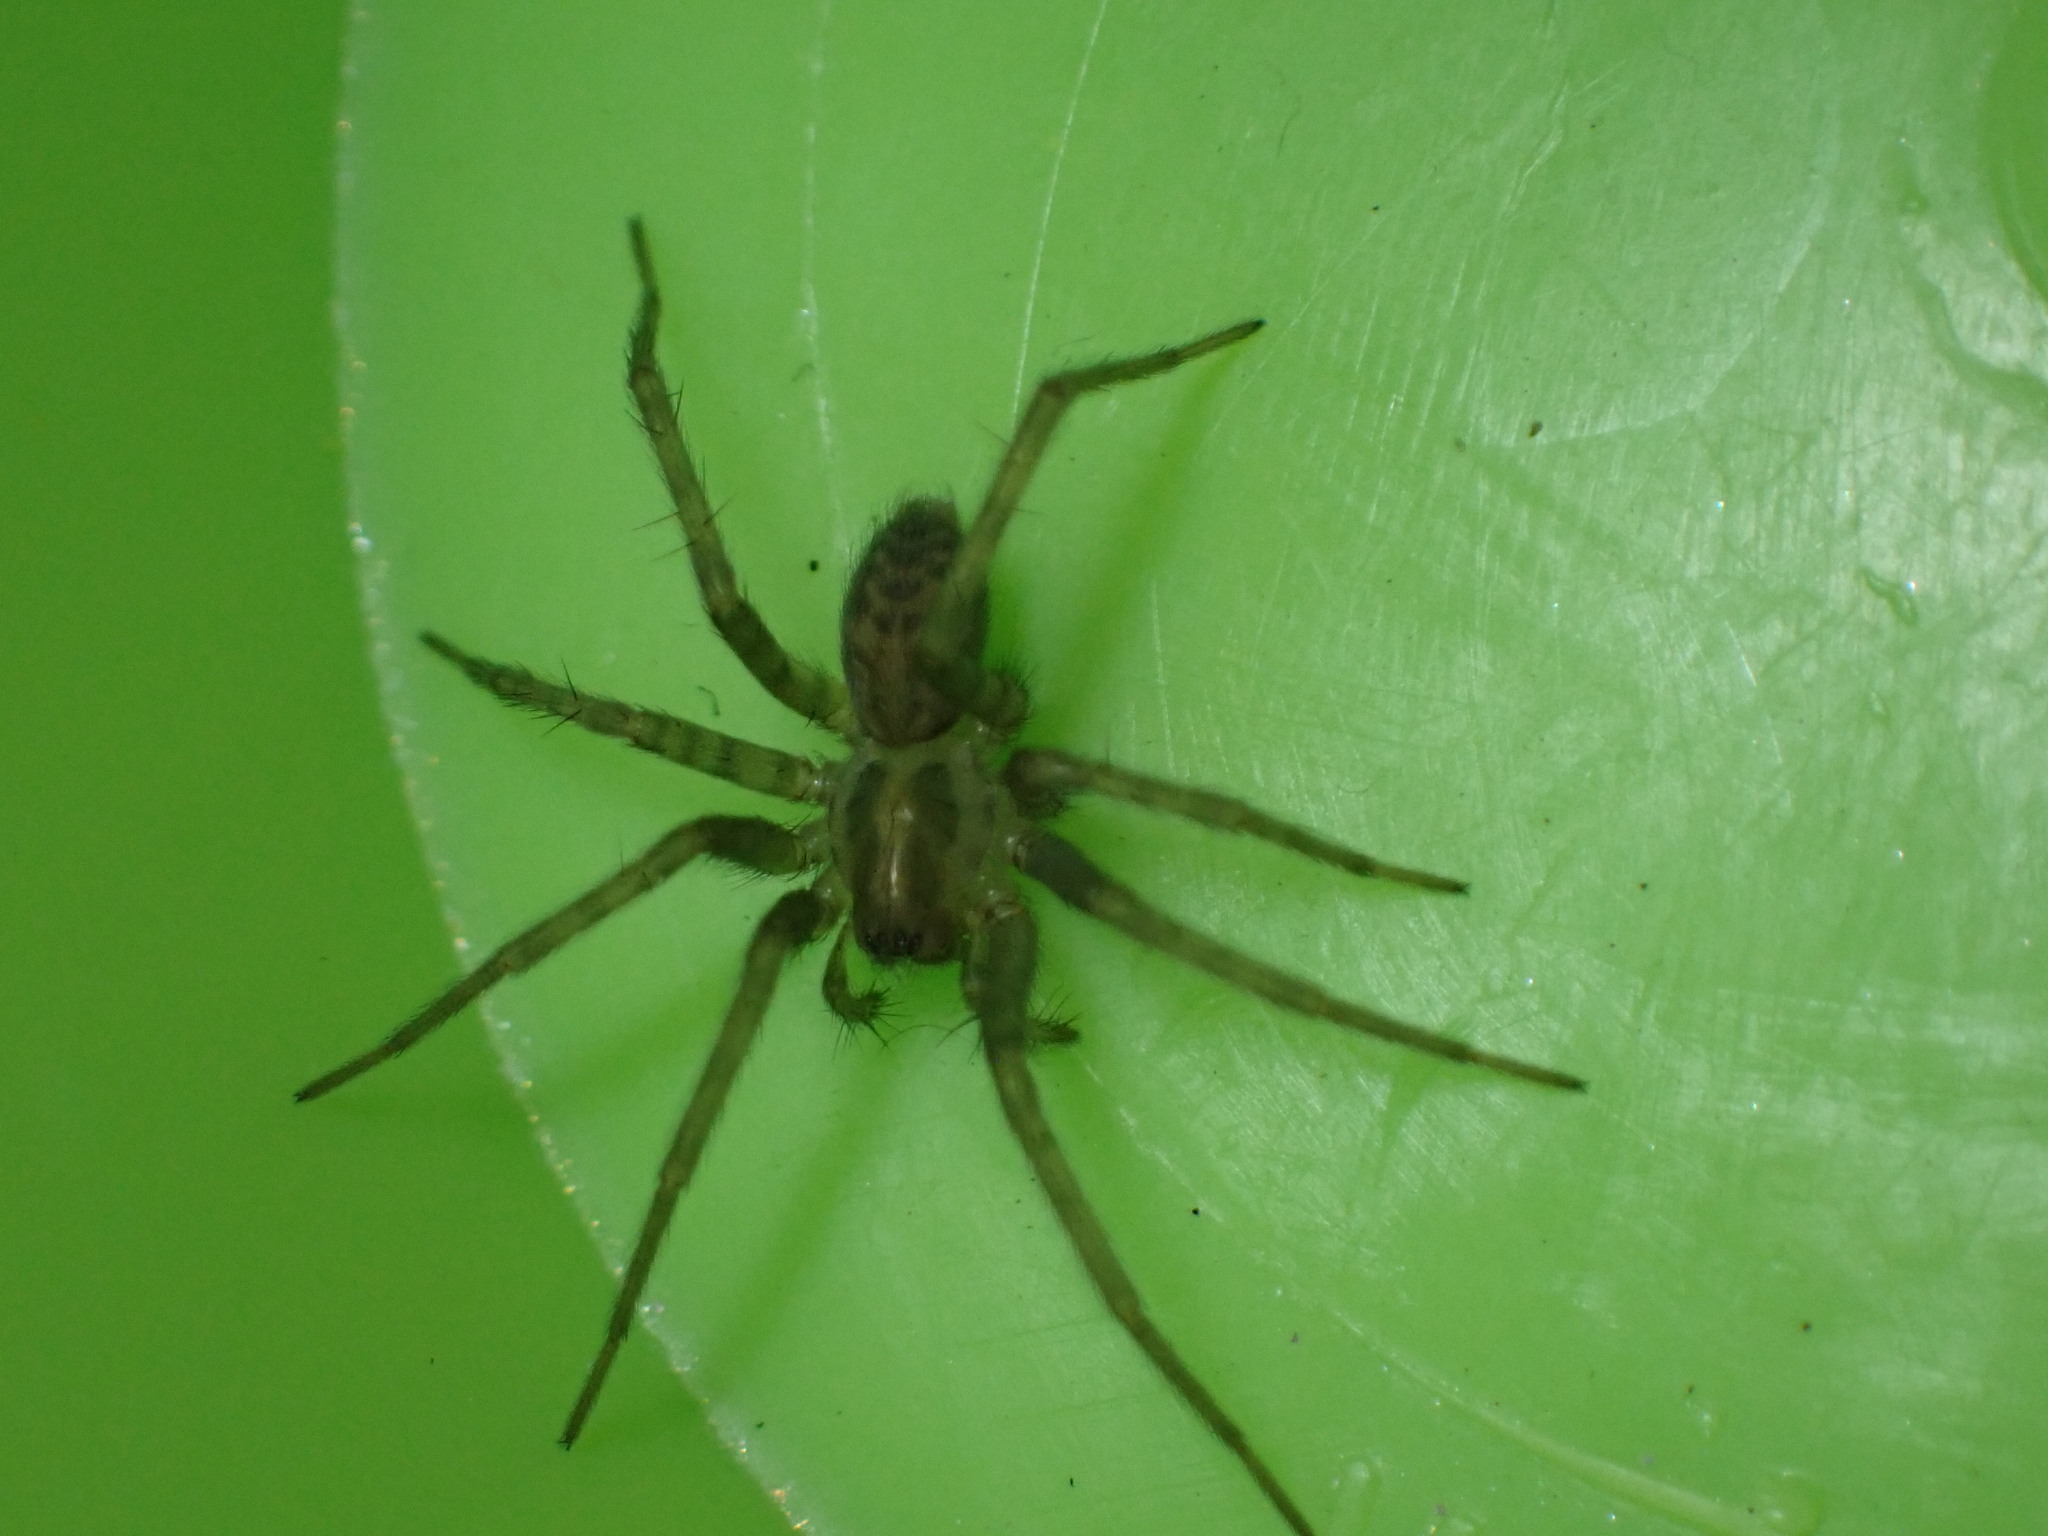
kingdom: Animalia
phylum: Arthropoda
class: Arachnida
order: Araneae
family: Agelenidae
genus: Tegenaria
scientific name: Tegenaria domestica
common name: Barn funnel weaver
